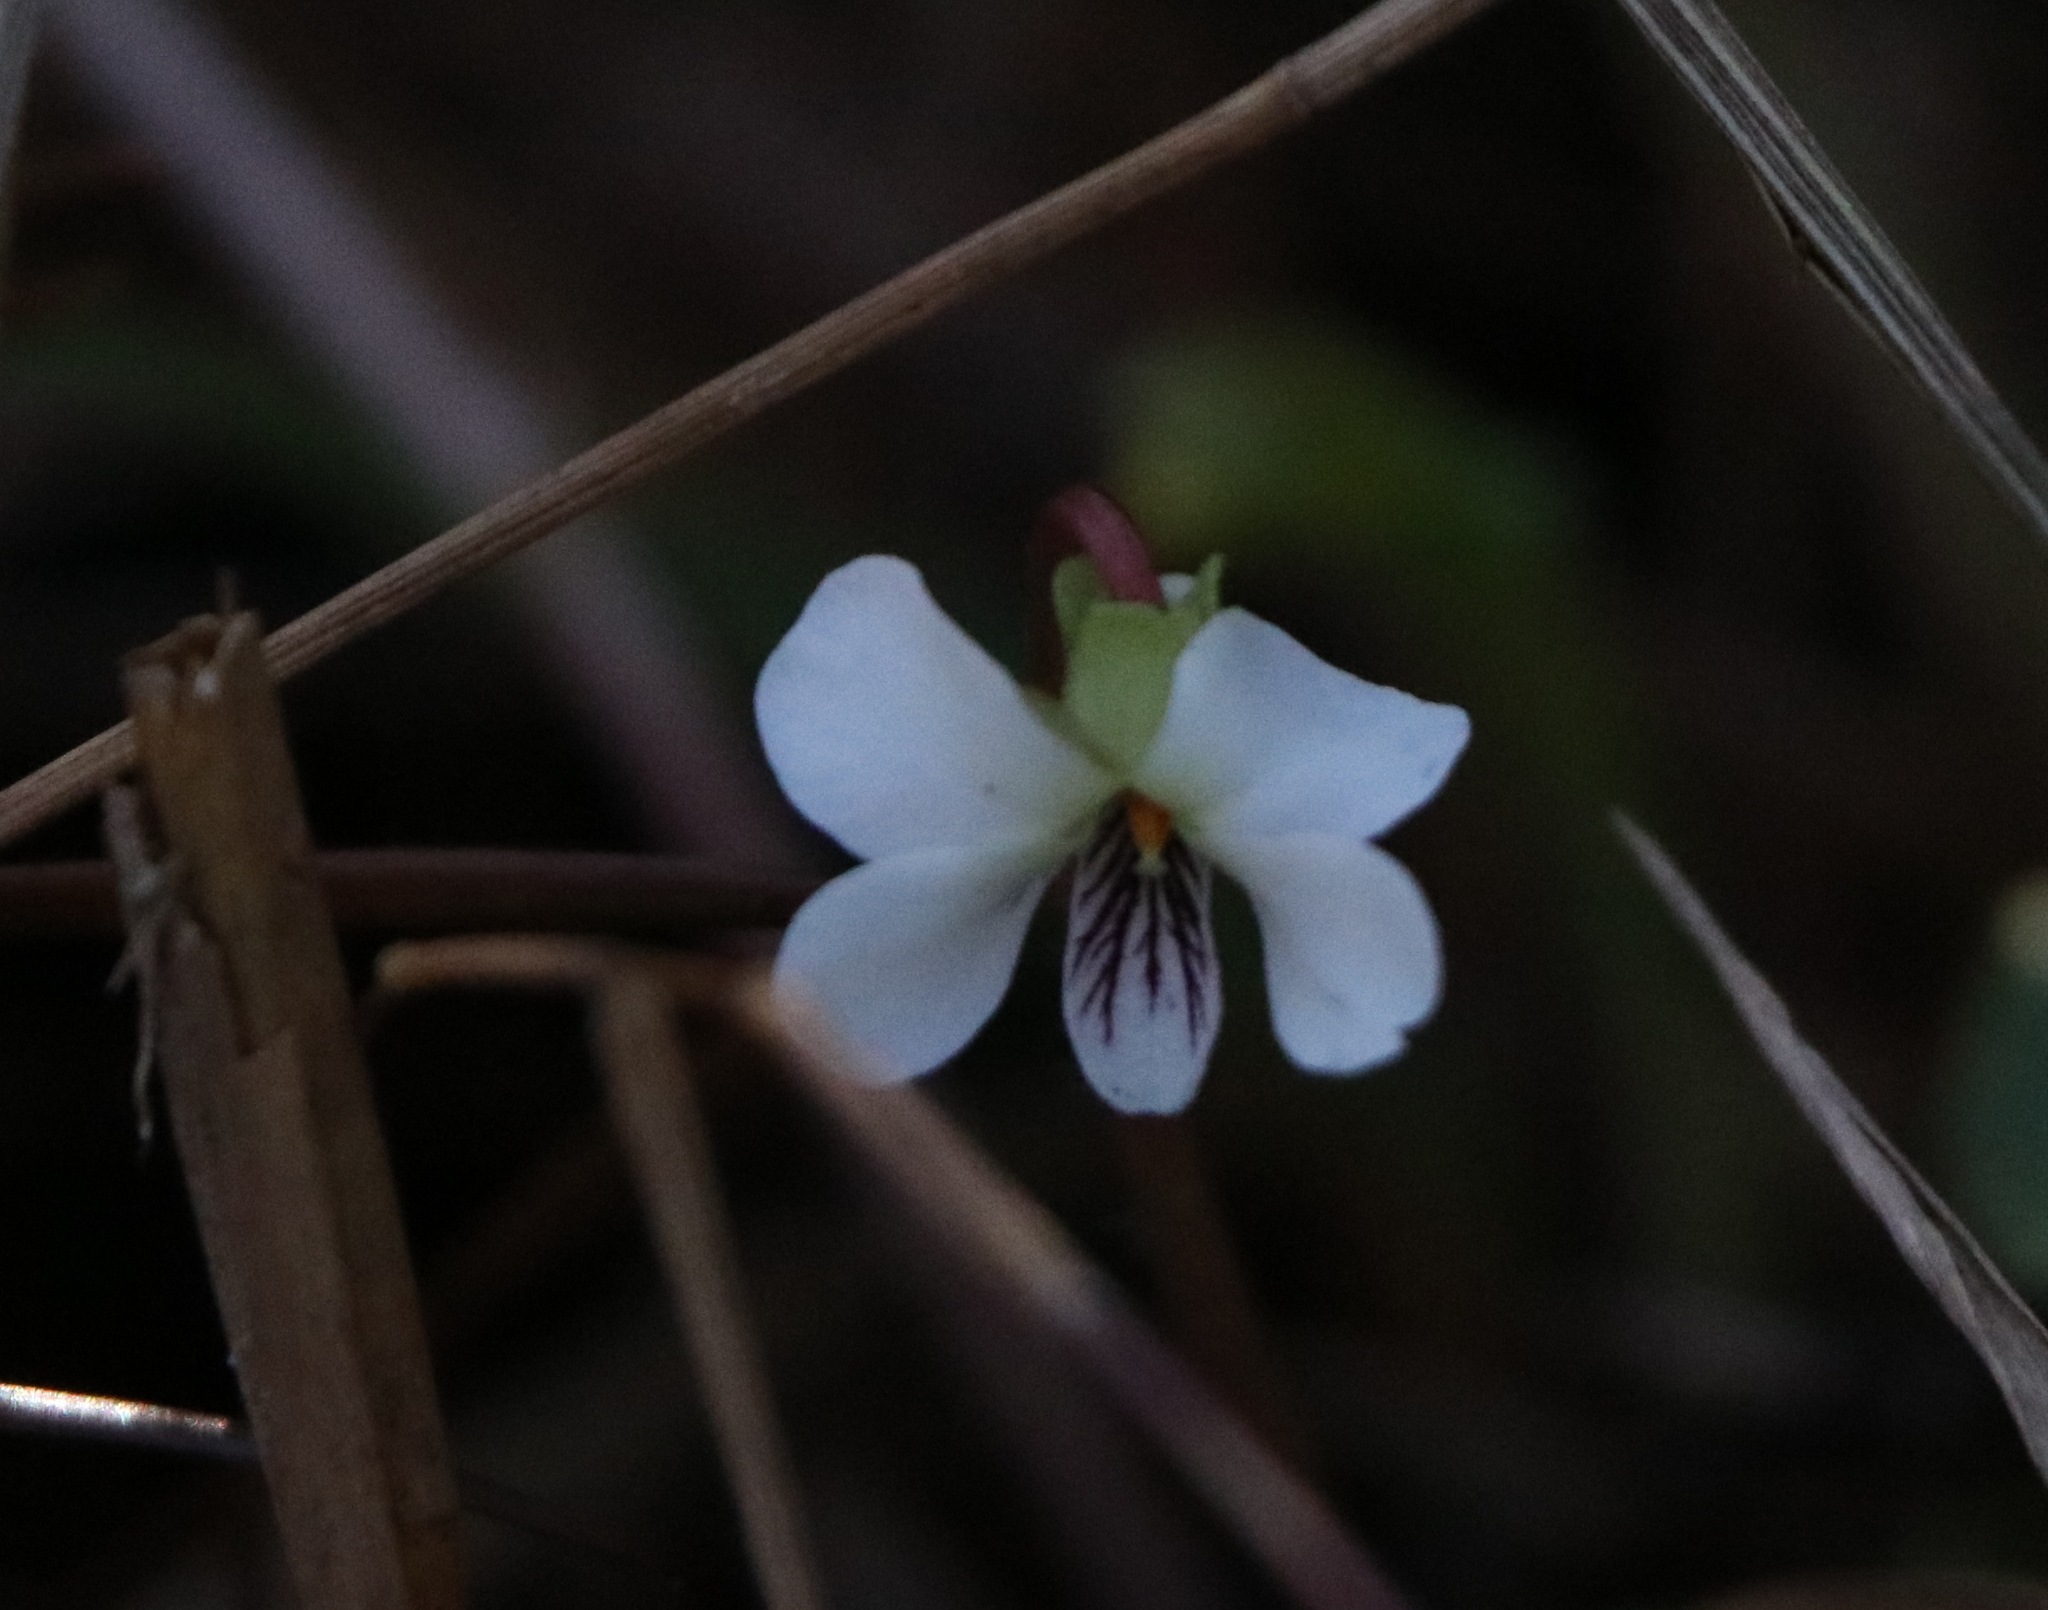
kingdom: Plantae
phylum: Tracheophyta
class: Magnoliopsida
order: Malpighiales
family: Violaceae
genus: Viola
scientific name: Viola primulifolia
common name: Primrose-leaf violet
